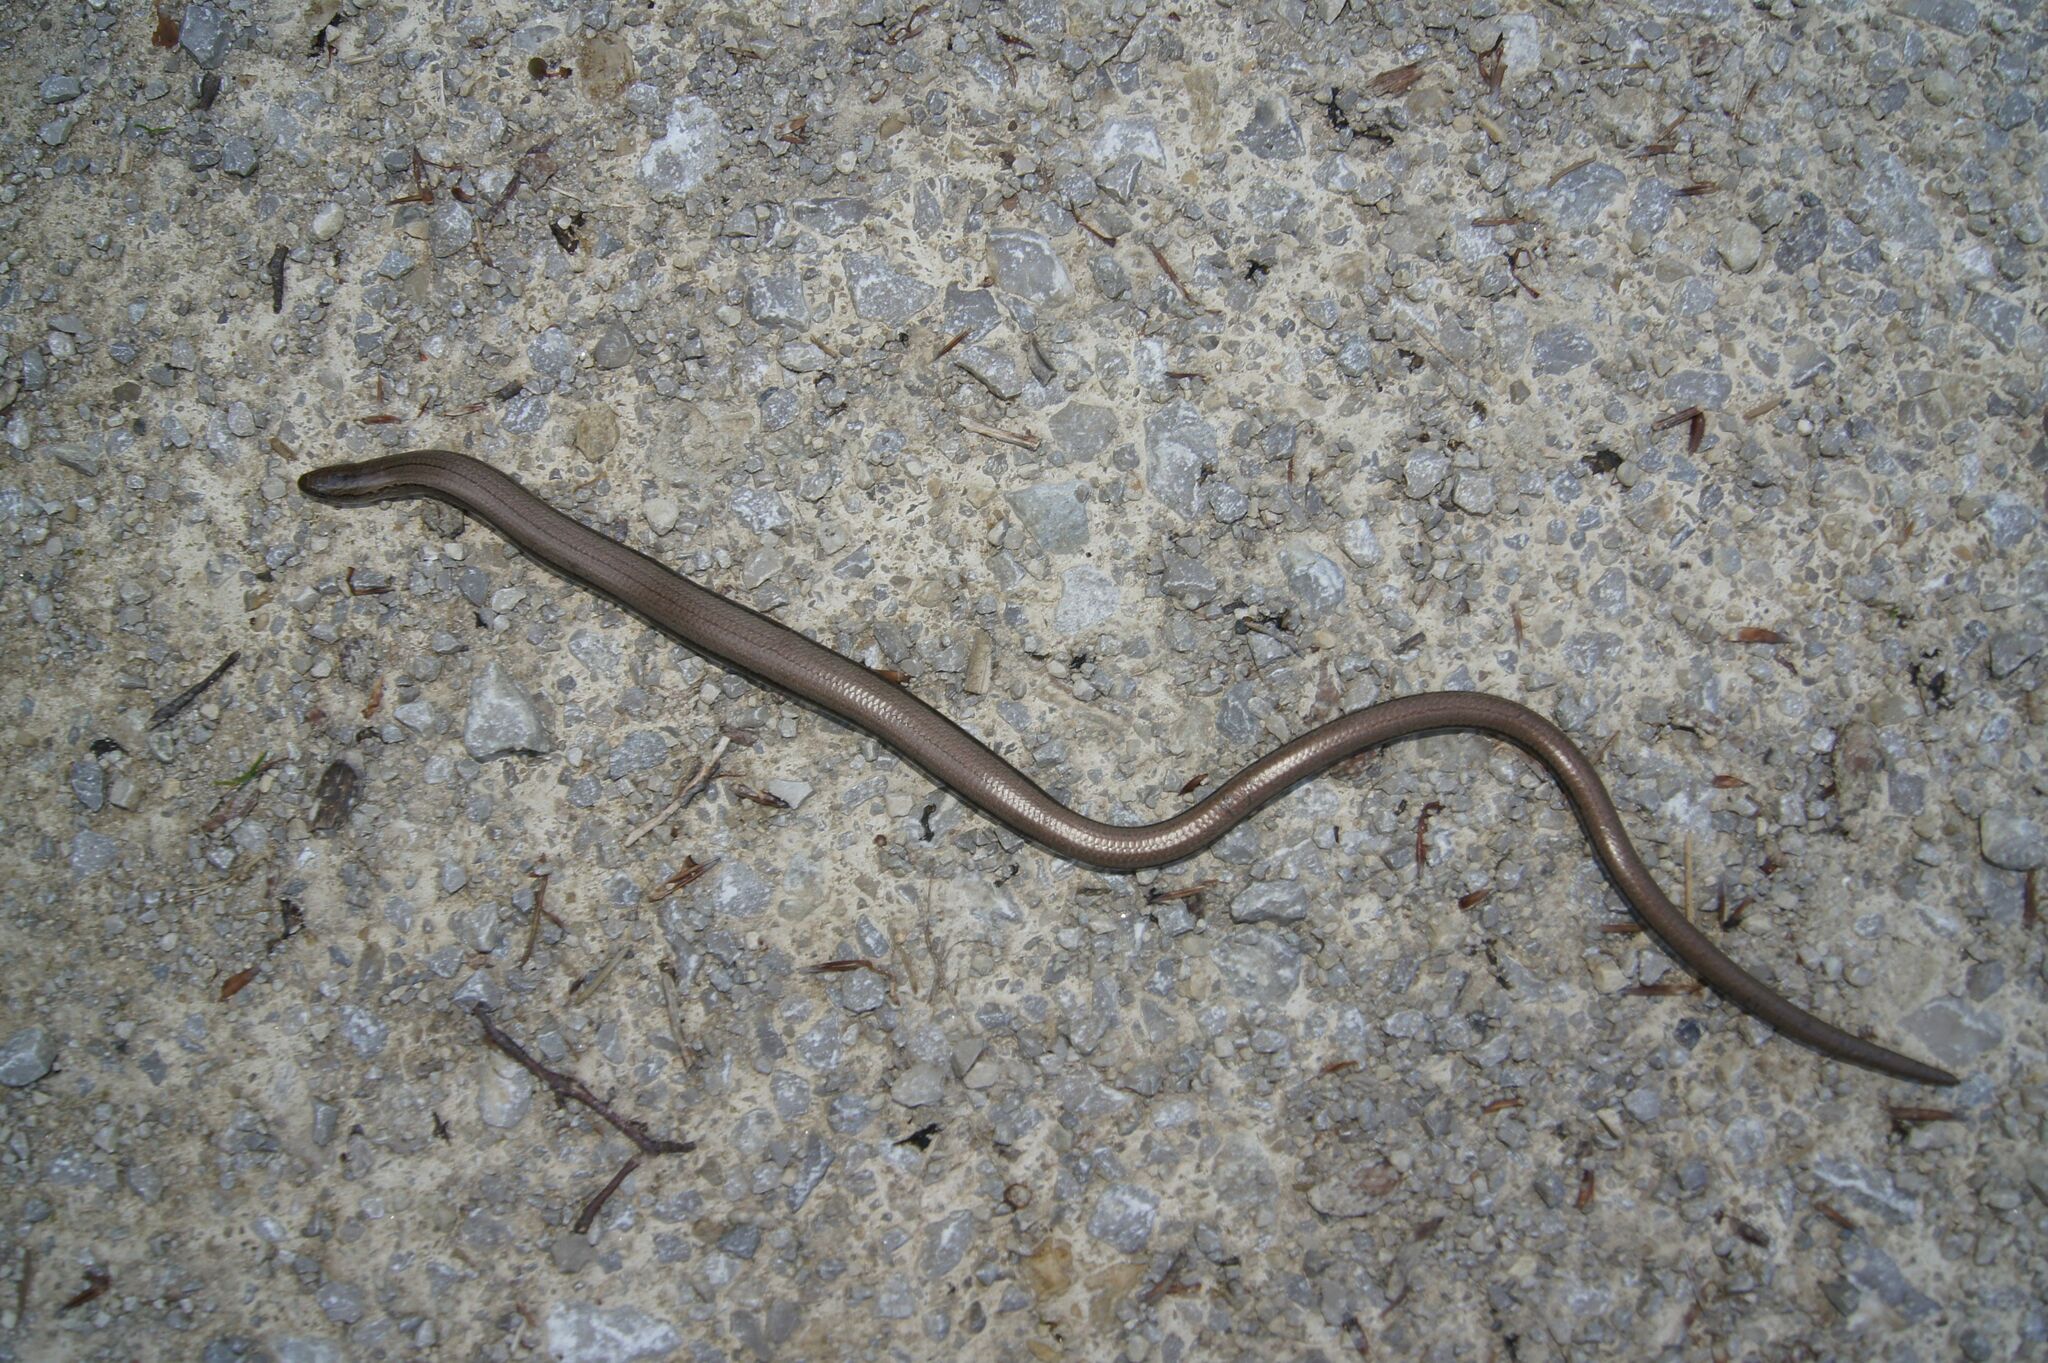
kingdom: Animalia
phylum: Chordata
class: Squamata
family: Anguidae
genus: Anguis
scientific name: Anguis fragilis
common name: Slow worm
